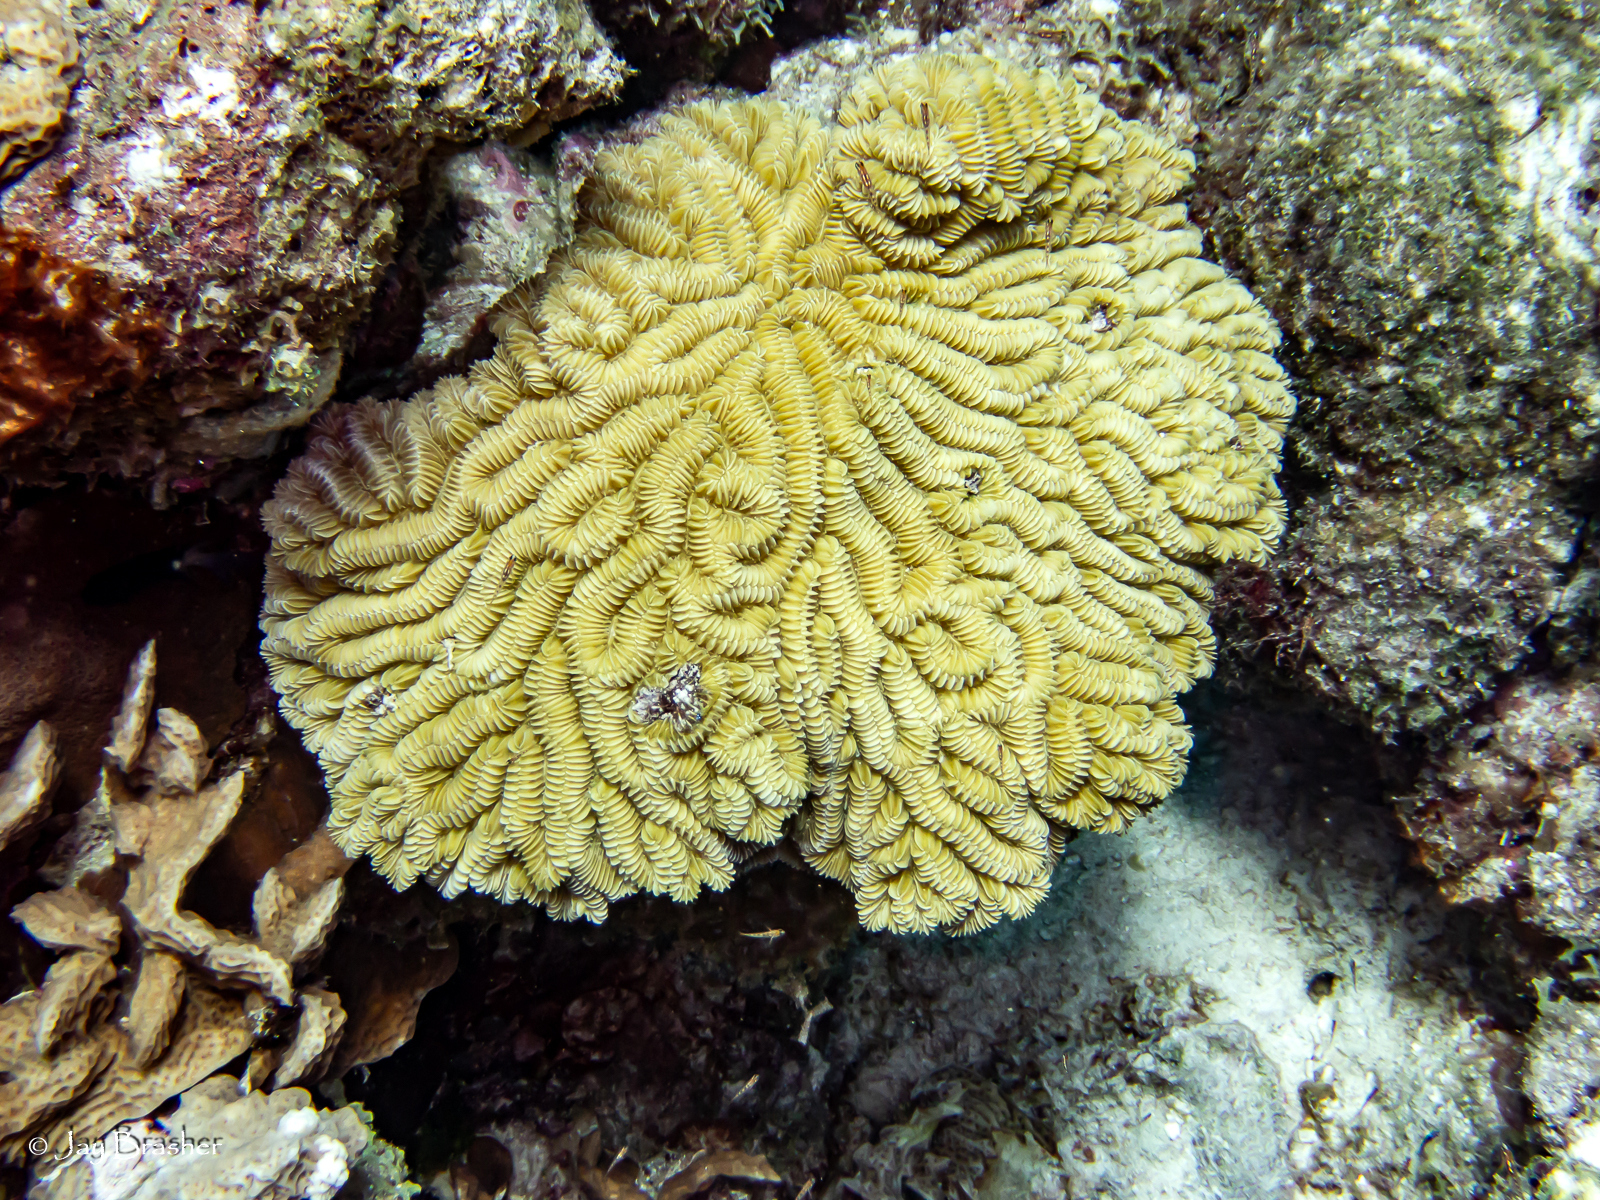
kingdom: Animalia
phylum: Cnidaria
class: Anthozoa
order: Scleractinia
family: Meandrinidae
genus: Meandrina
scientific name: Meandrina meandrites
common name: Maze coral
